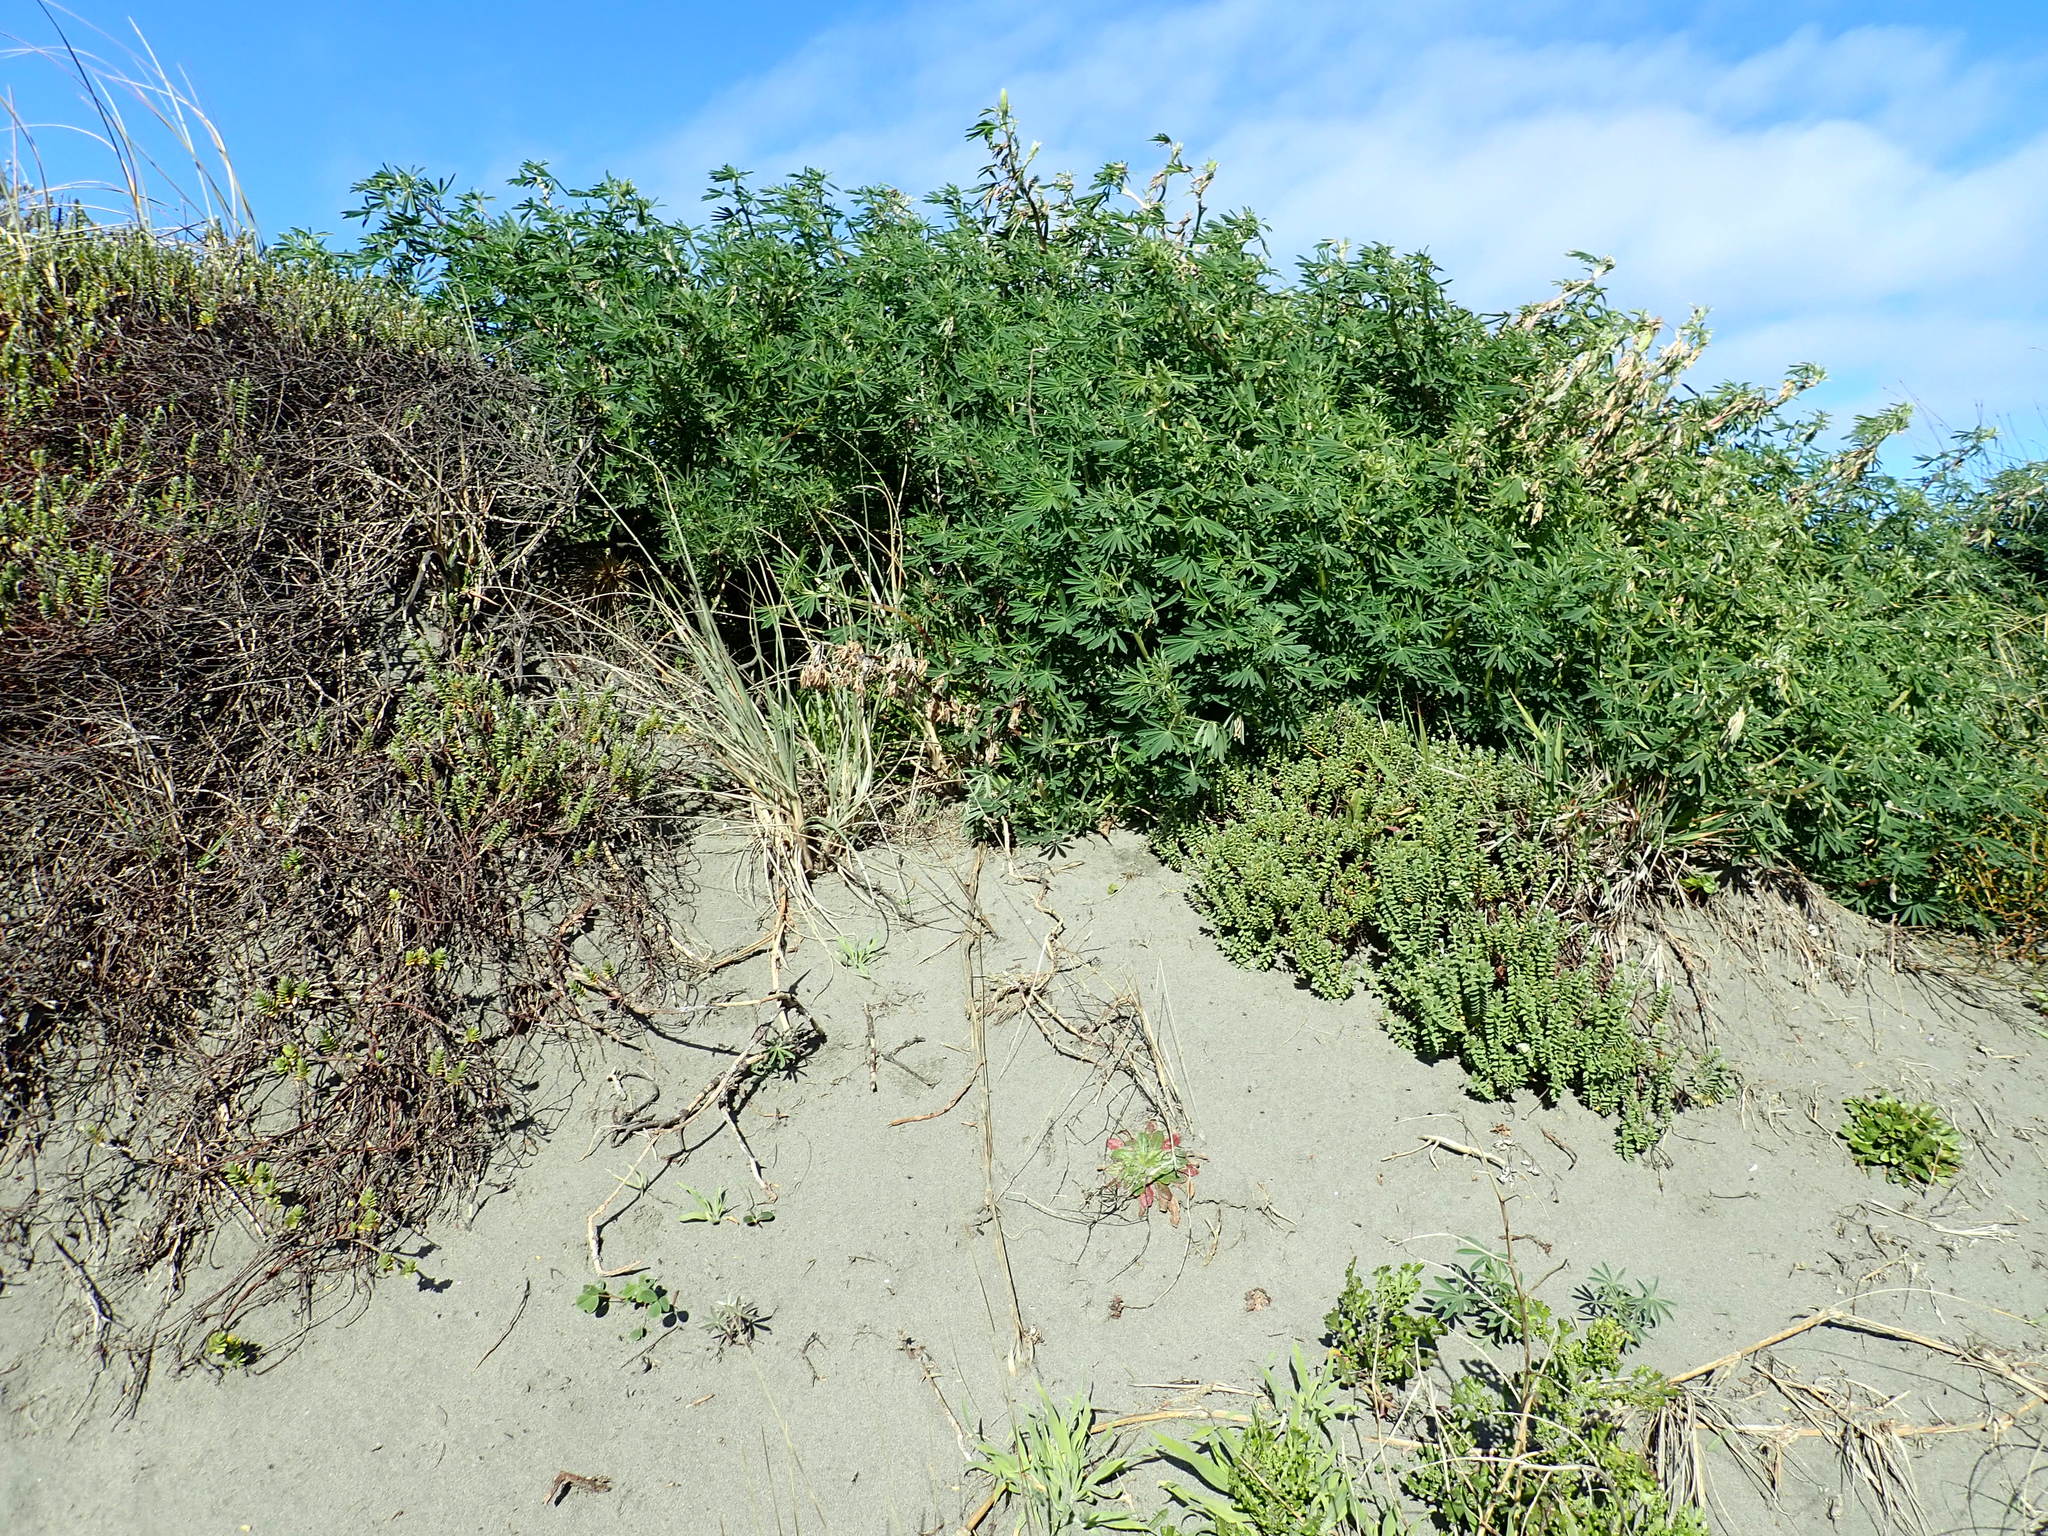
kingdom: Plantae
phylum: Tracheophyta
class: Magnoliopsida
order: Malvales
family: Thymelaeaceae
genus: Pimelea
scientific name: Pimelea villosa
